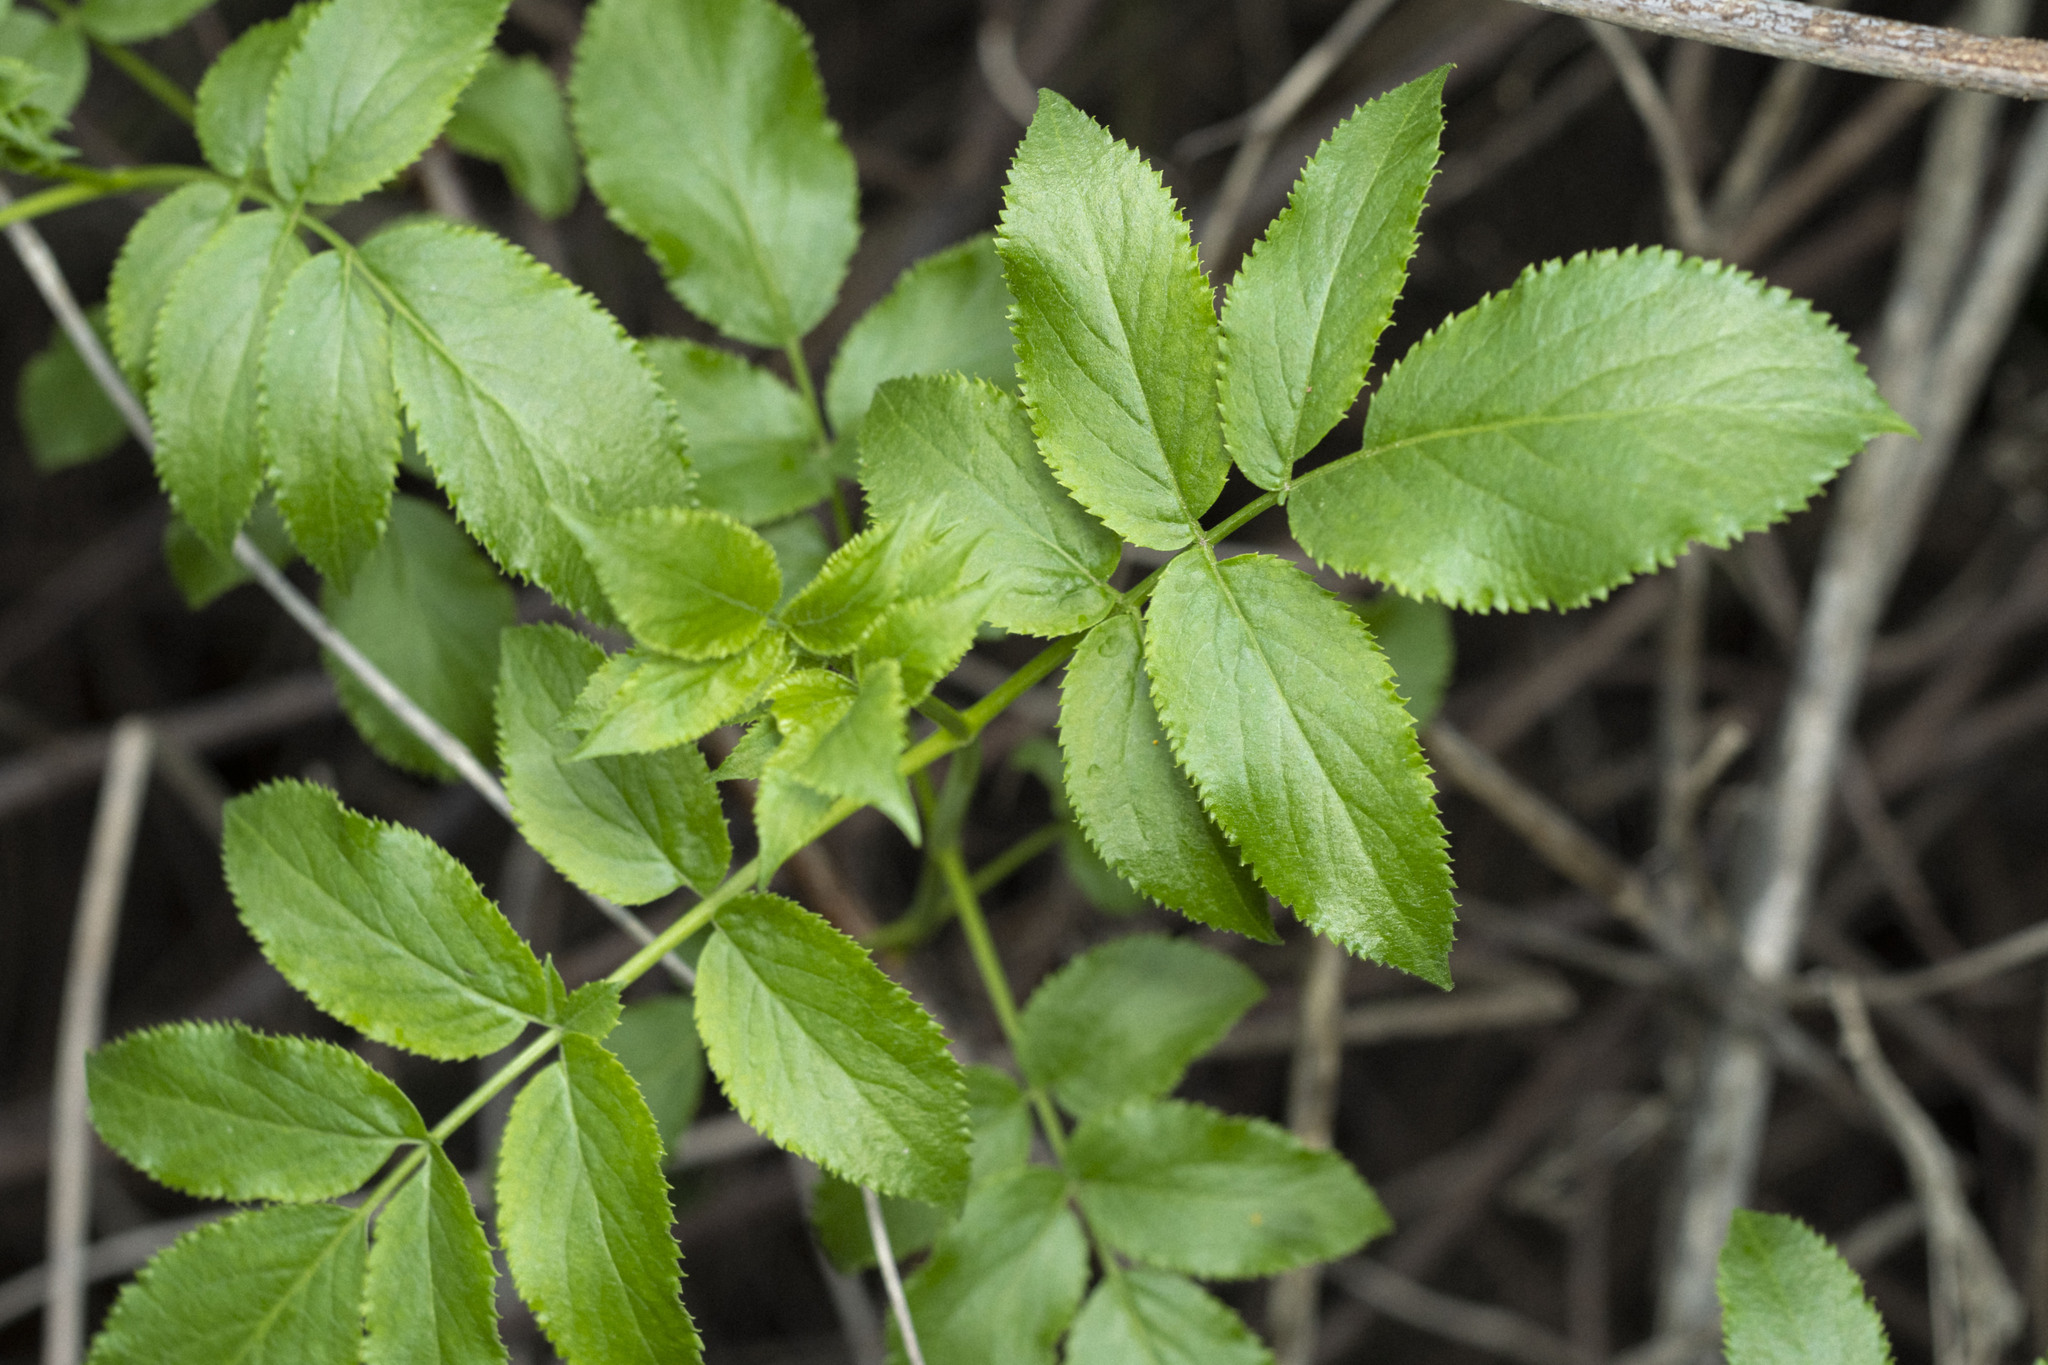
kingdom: Plantae
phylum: Tracheophyta
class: Magnoliopsida
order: Dipsacales
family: Viburnaceae
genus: Sambucus
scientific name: Sambucus cerulea
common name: Blue elder
